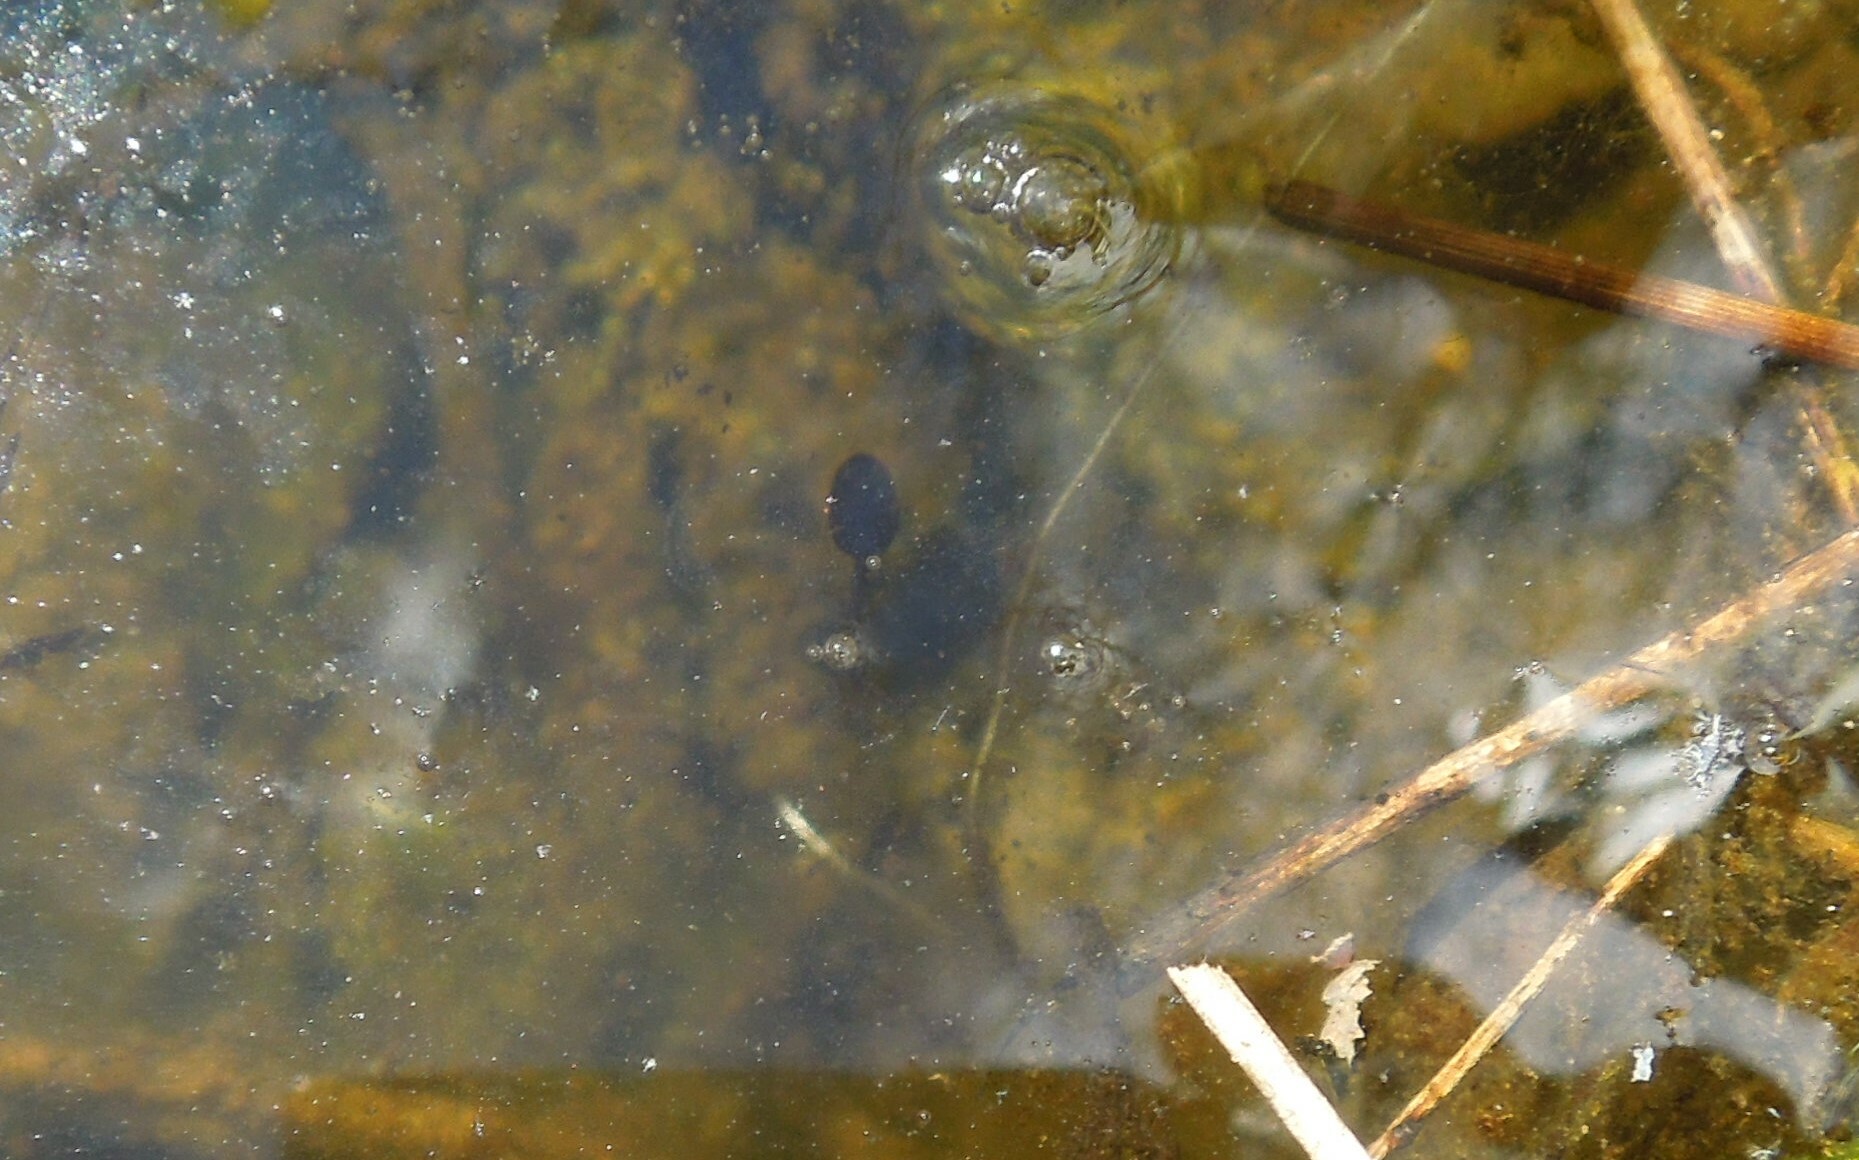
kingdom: Animalia
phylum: Chordata
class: Amphibia
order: Anura
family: Ranidae
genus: Lithobates
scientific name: Lithobates
